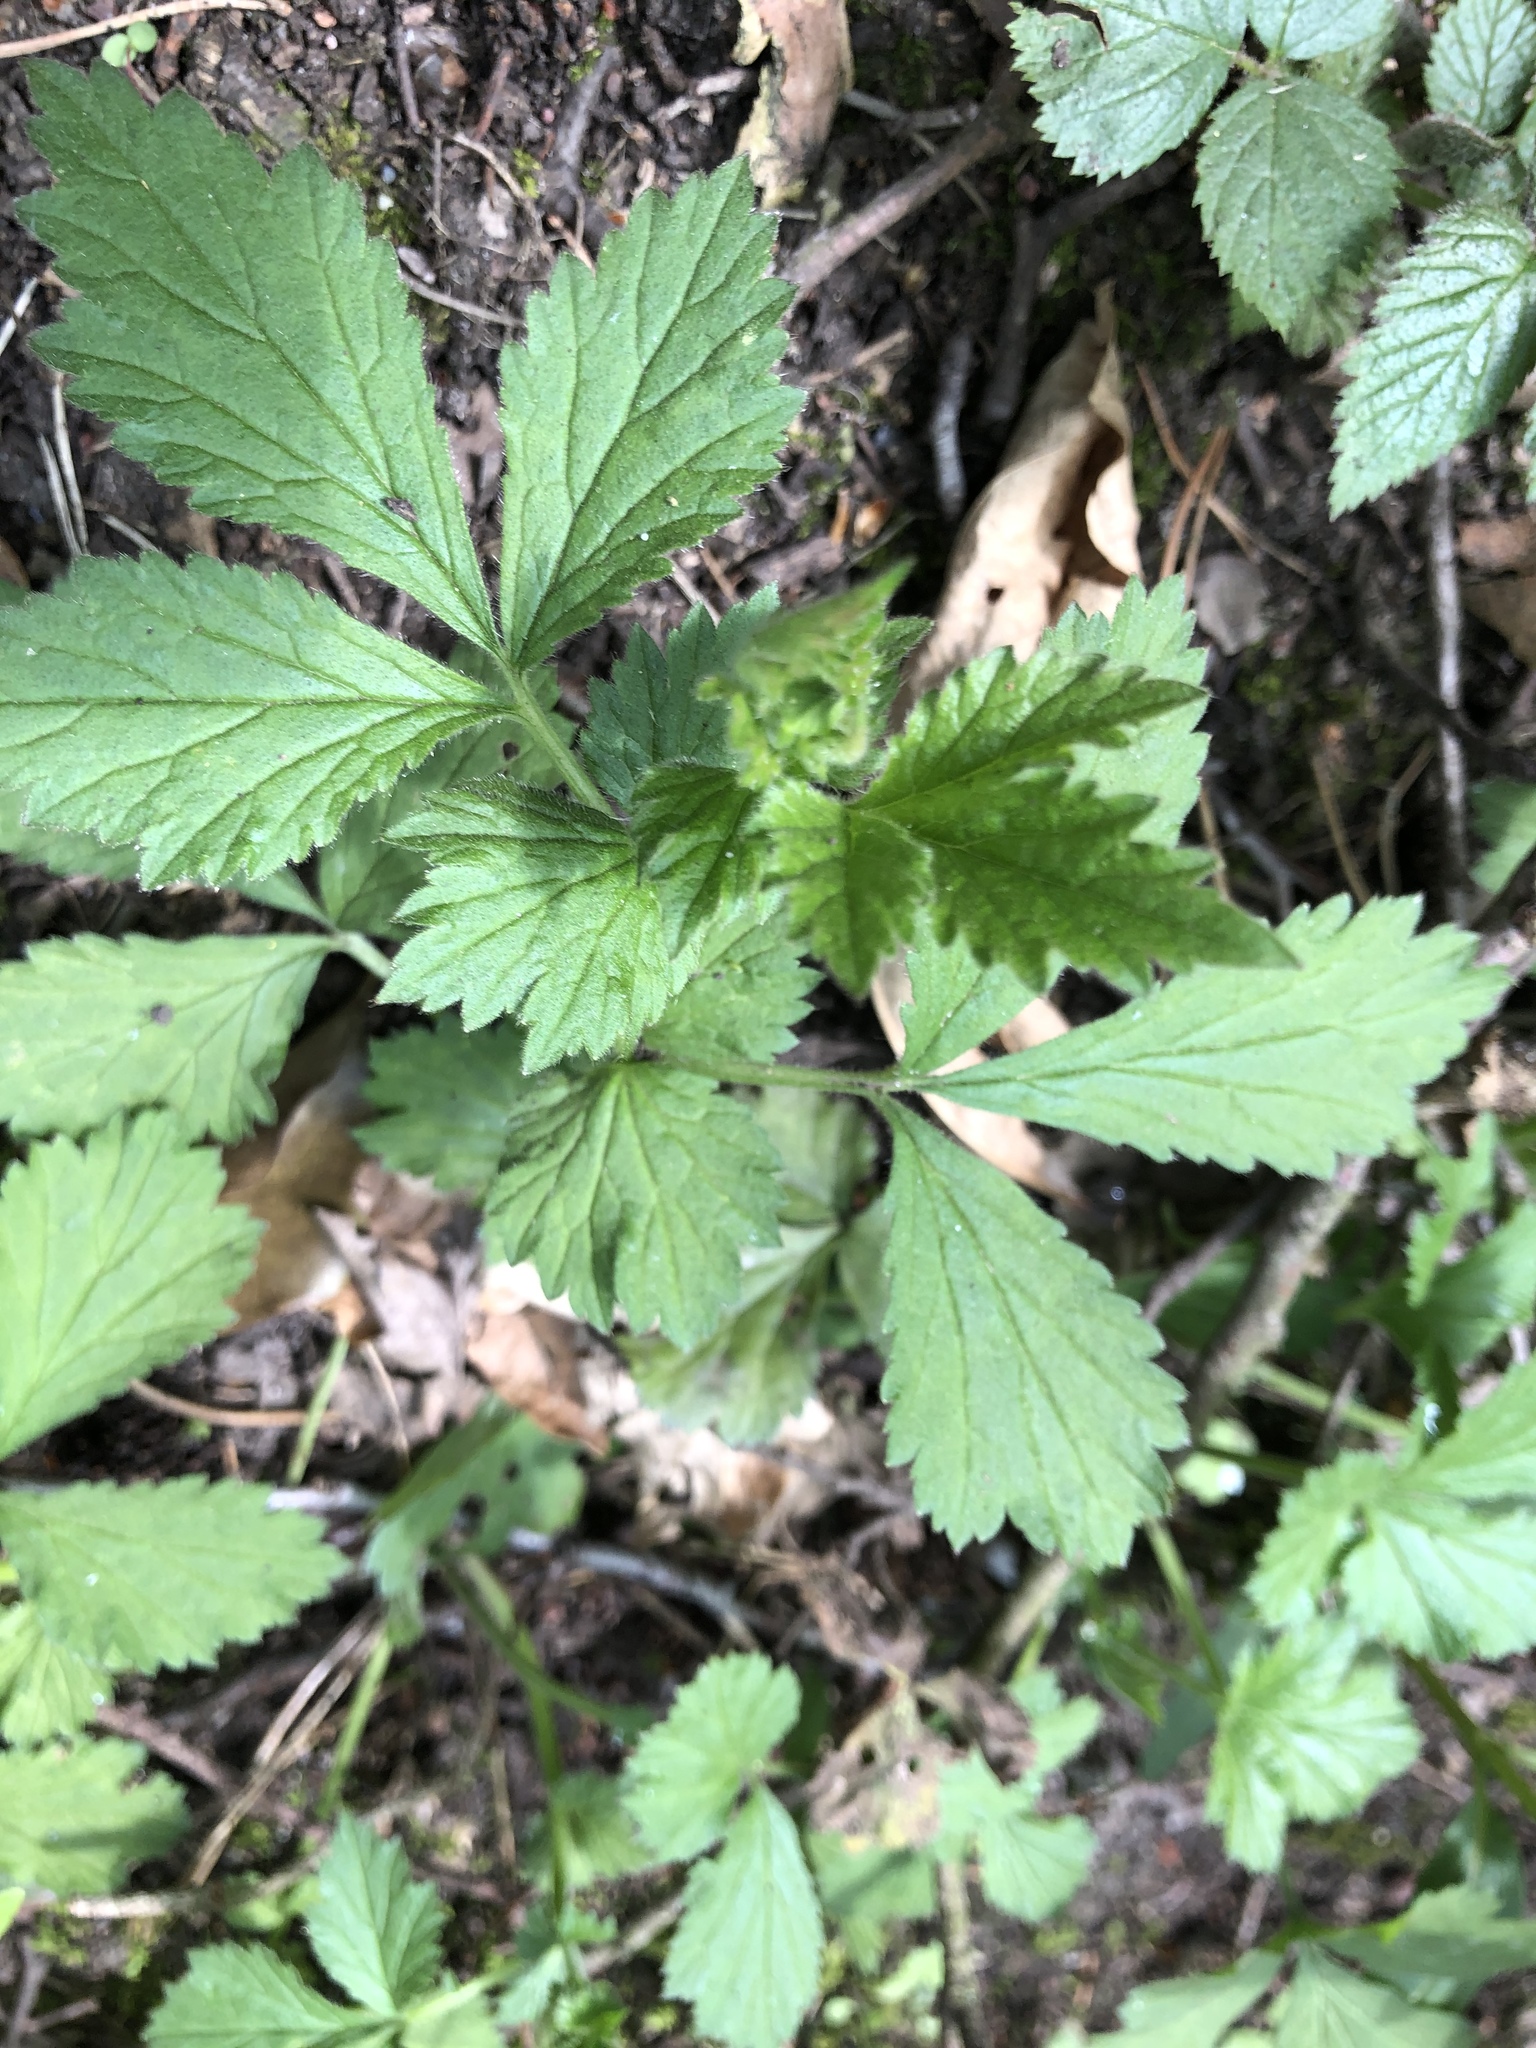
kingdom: Plantae
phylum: Tracheophyta
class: Magnoliopsida
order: Rosales
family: Rosaceae
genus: Geum
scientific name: Geum urbanum
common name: Wood avens
